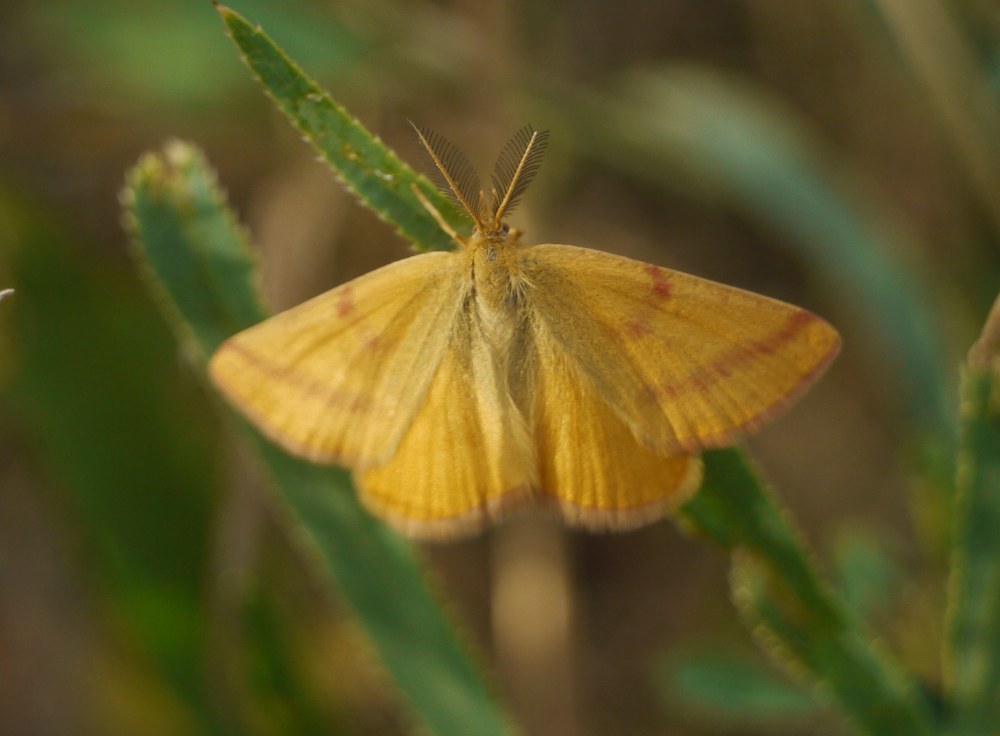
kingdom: Animalia
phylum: Arthropoda
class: Insecta
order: Lepidoptera
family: Geometridae
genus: Lythria
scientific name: Lythria purpuraria
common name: Purple-barred yellow
